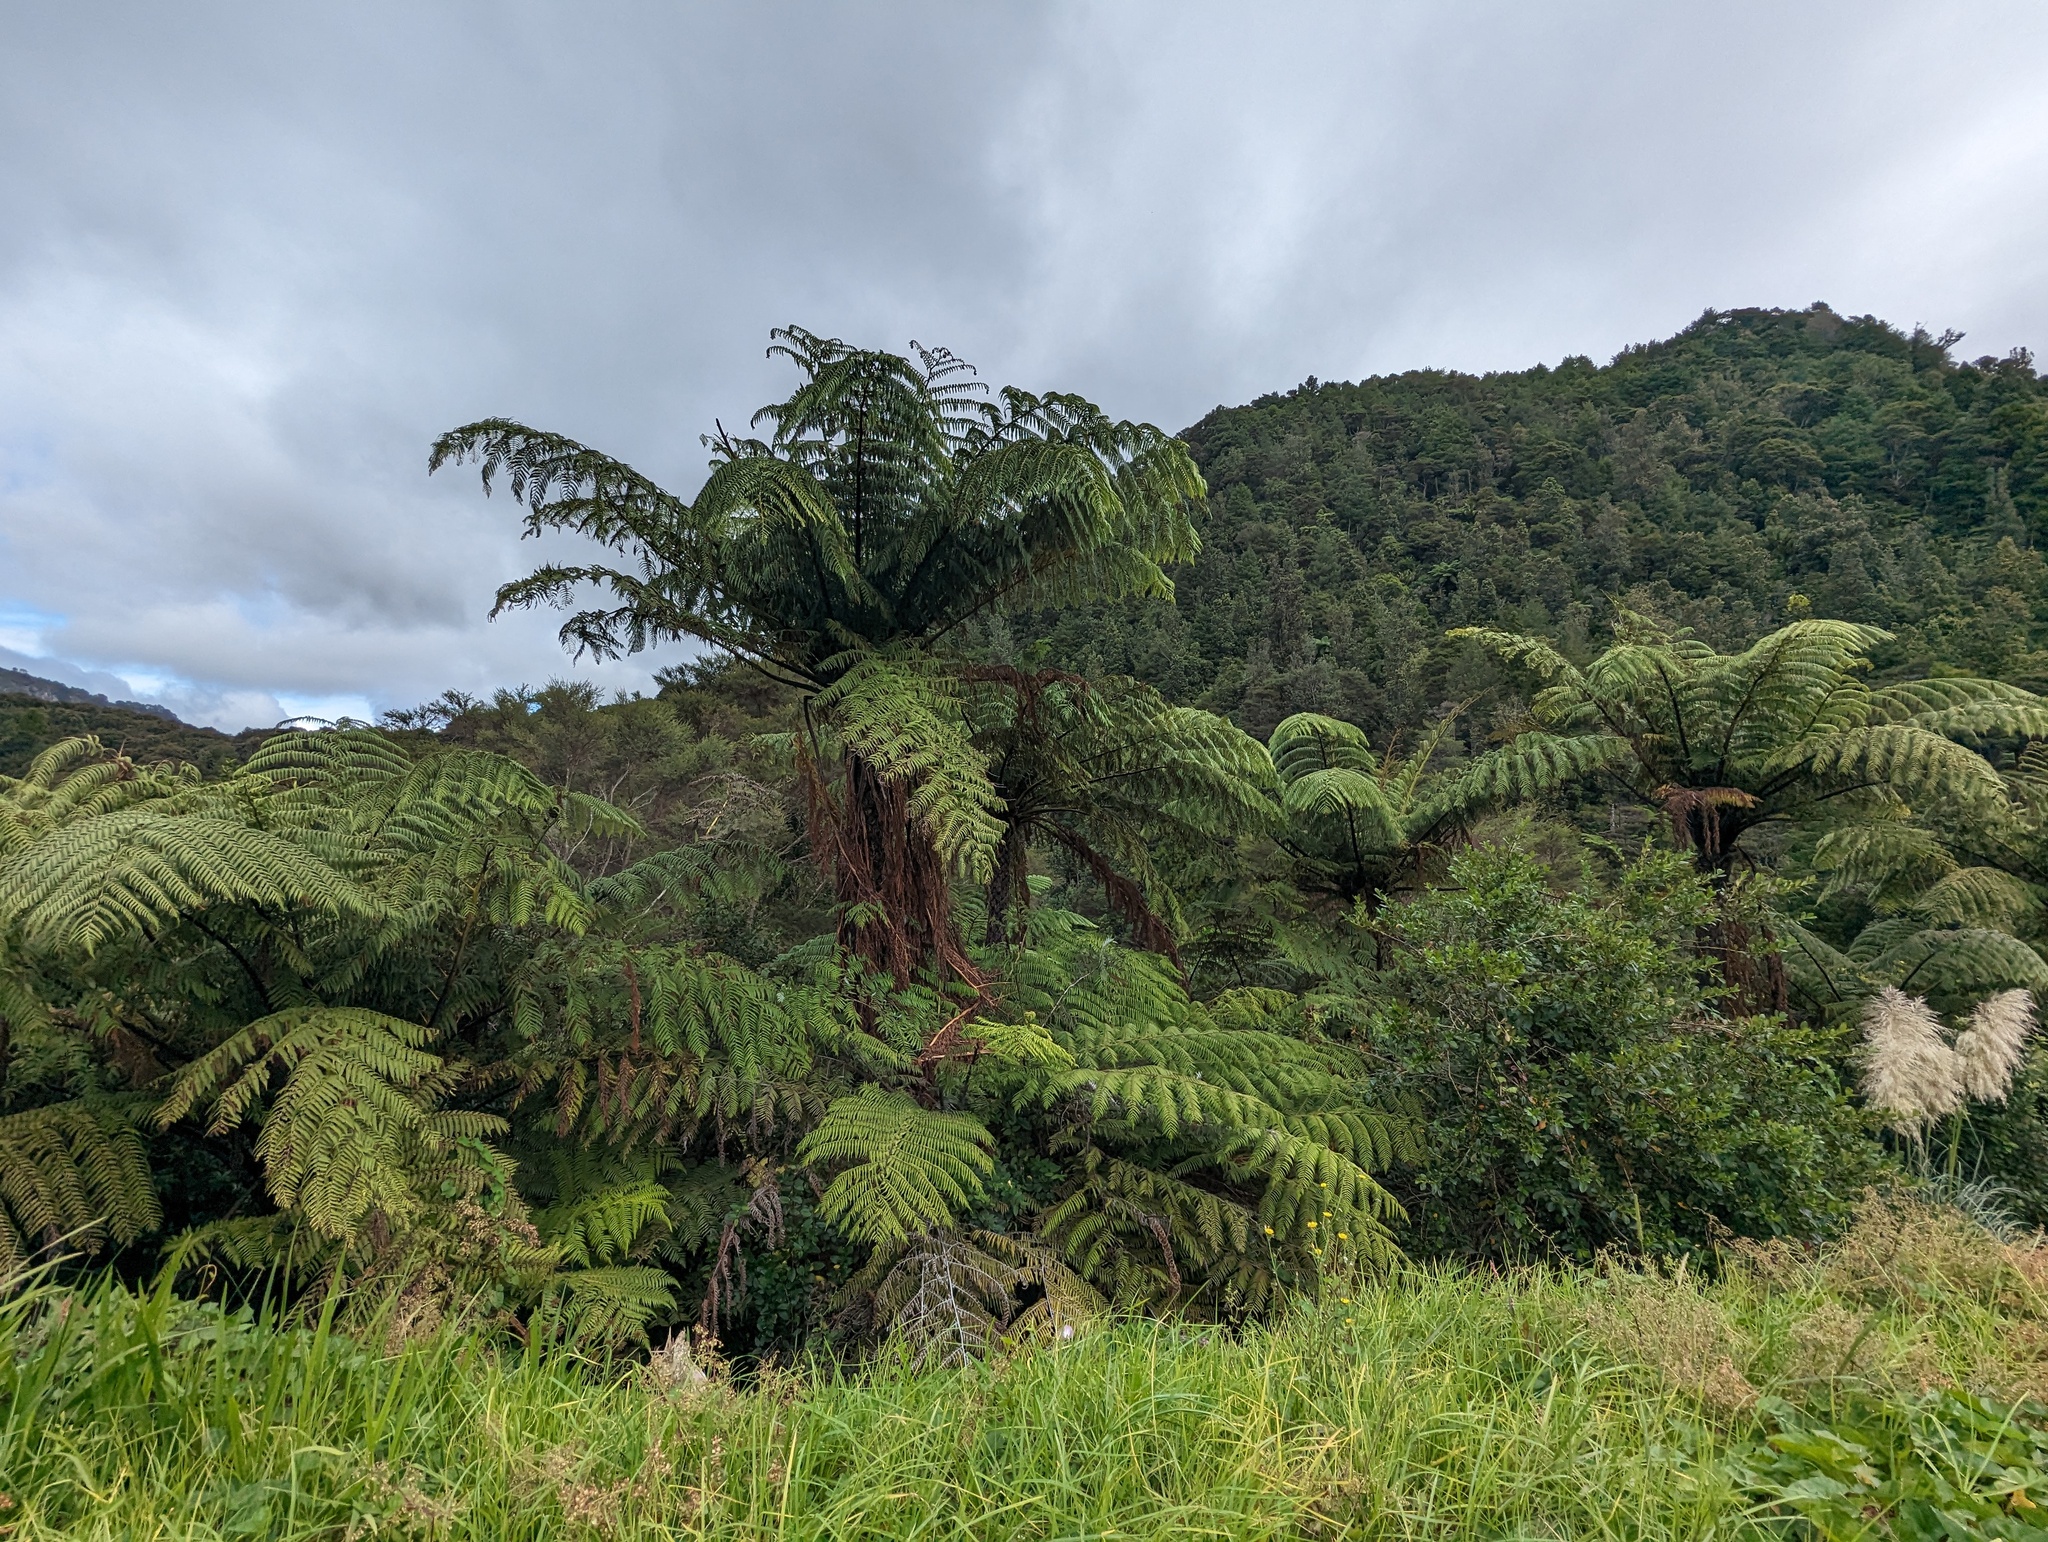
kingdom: Plantae
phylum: Tracheophyta
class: Polypodiopsida
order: Cyatheales
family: Cyatheaceae
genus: Sphaeropteris
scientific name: Sphaeropteris medullaris
